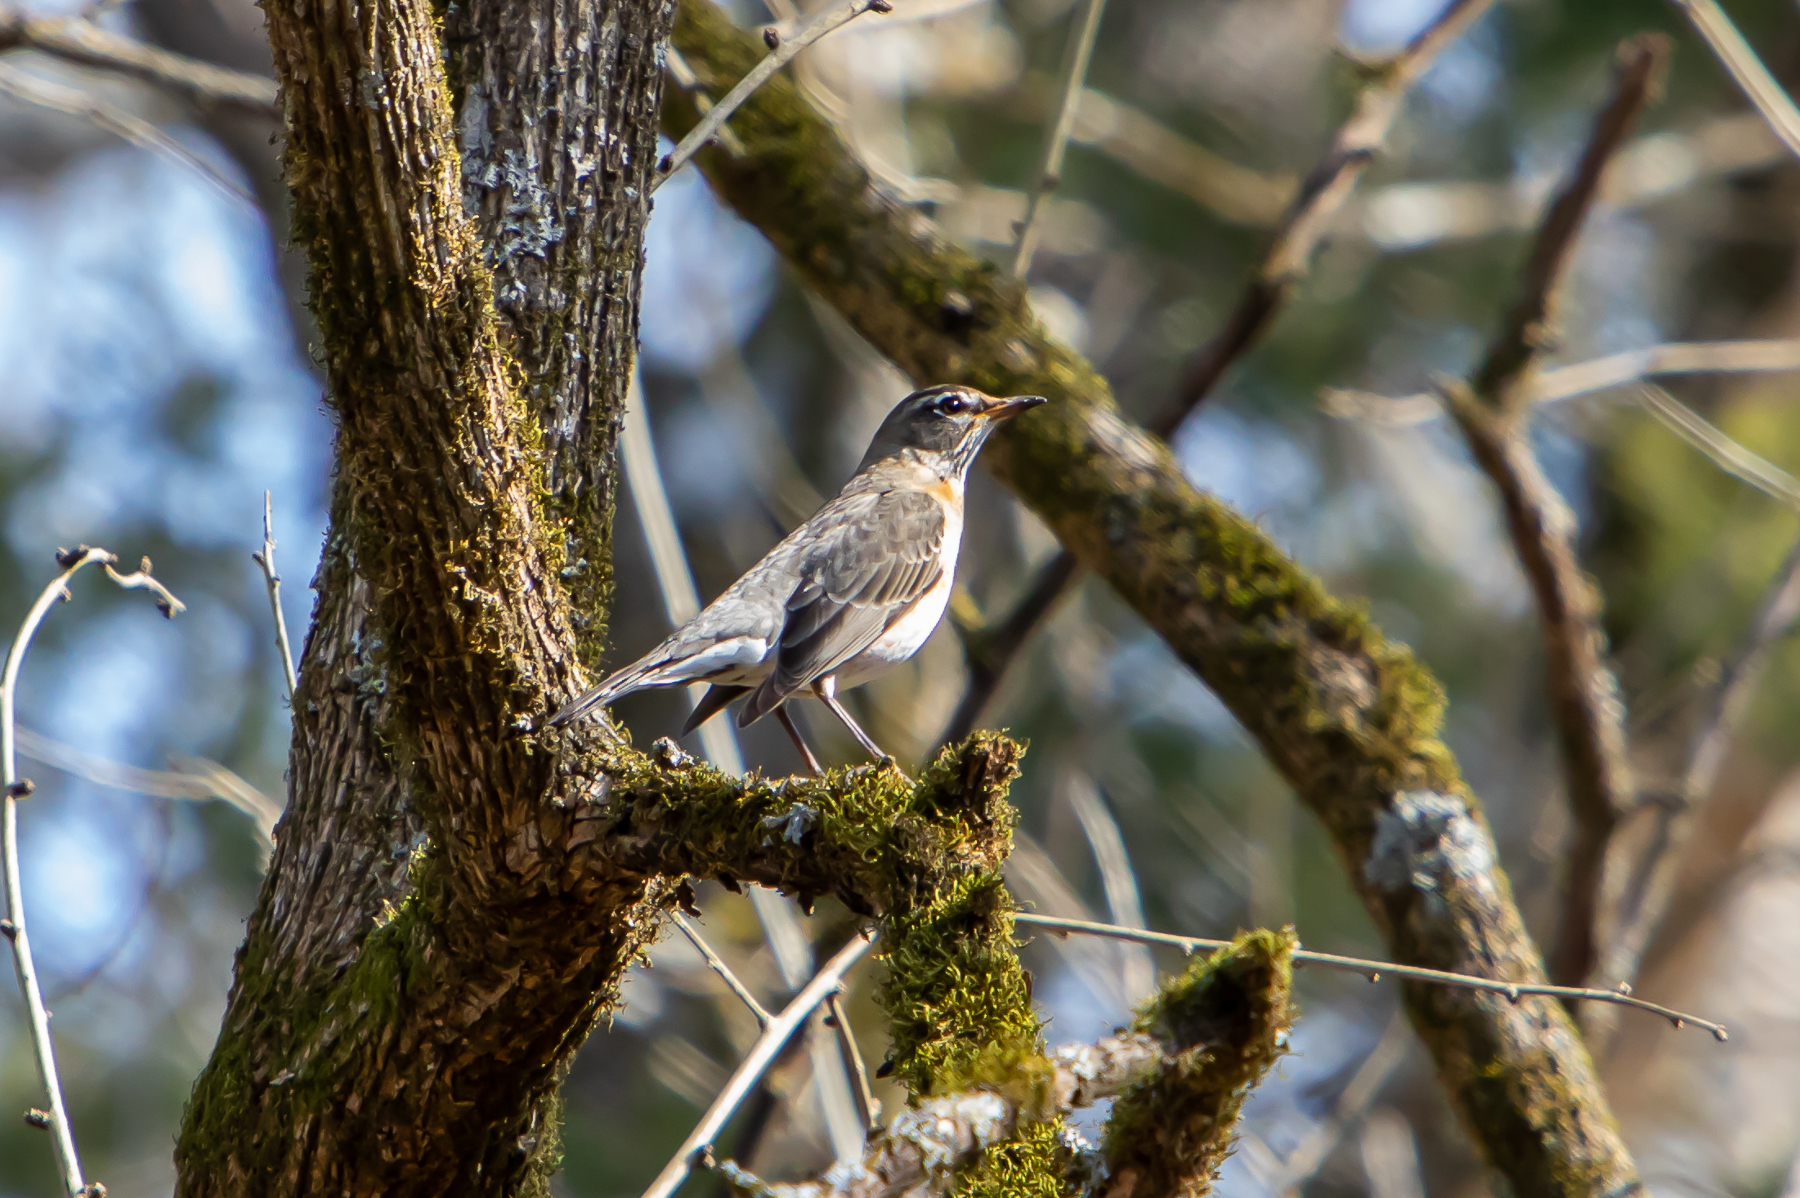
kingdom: Animalia
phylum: Chordata
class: Aves
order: Passeriformes
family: Turdidae
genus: Turdus
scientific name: Turdus migratorius
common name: American robin
